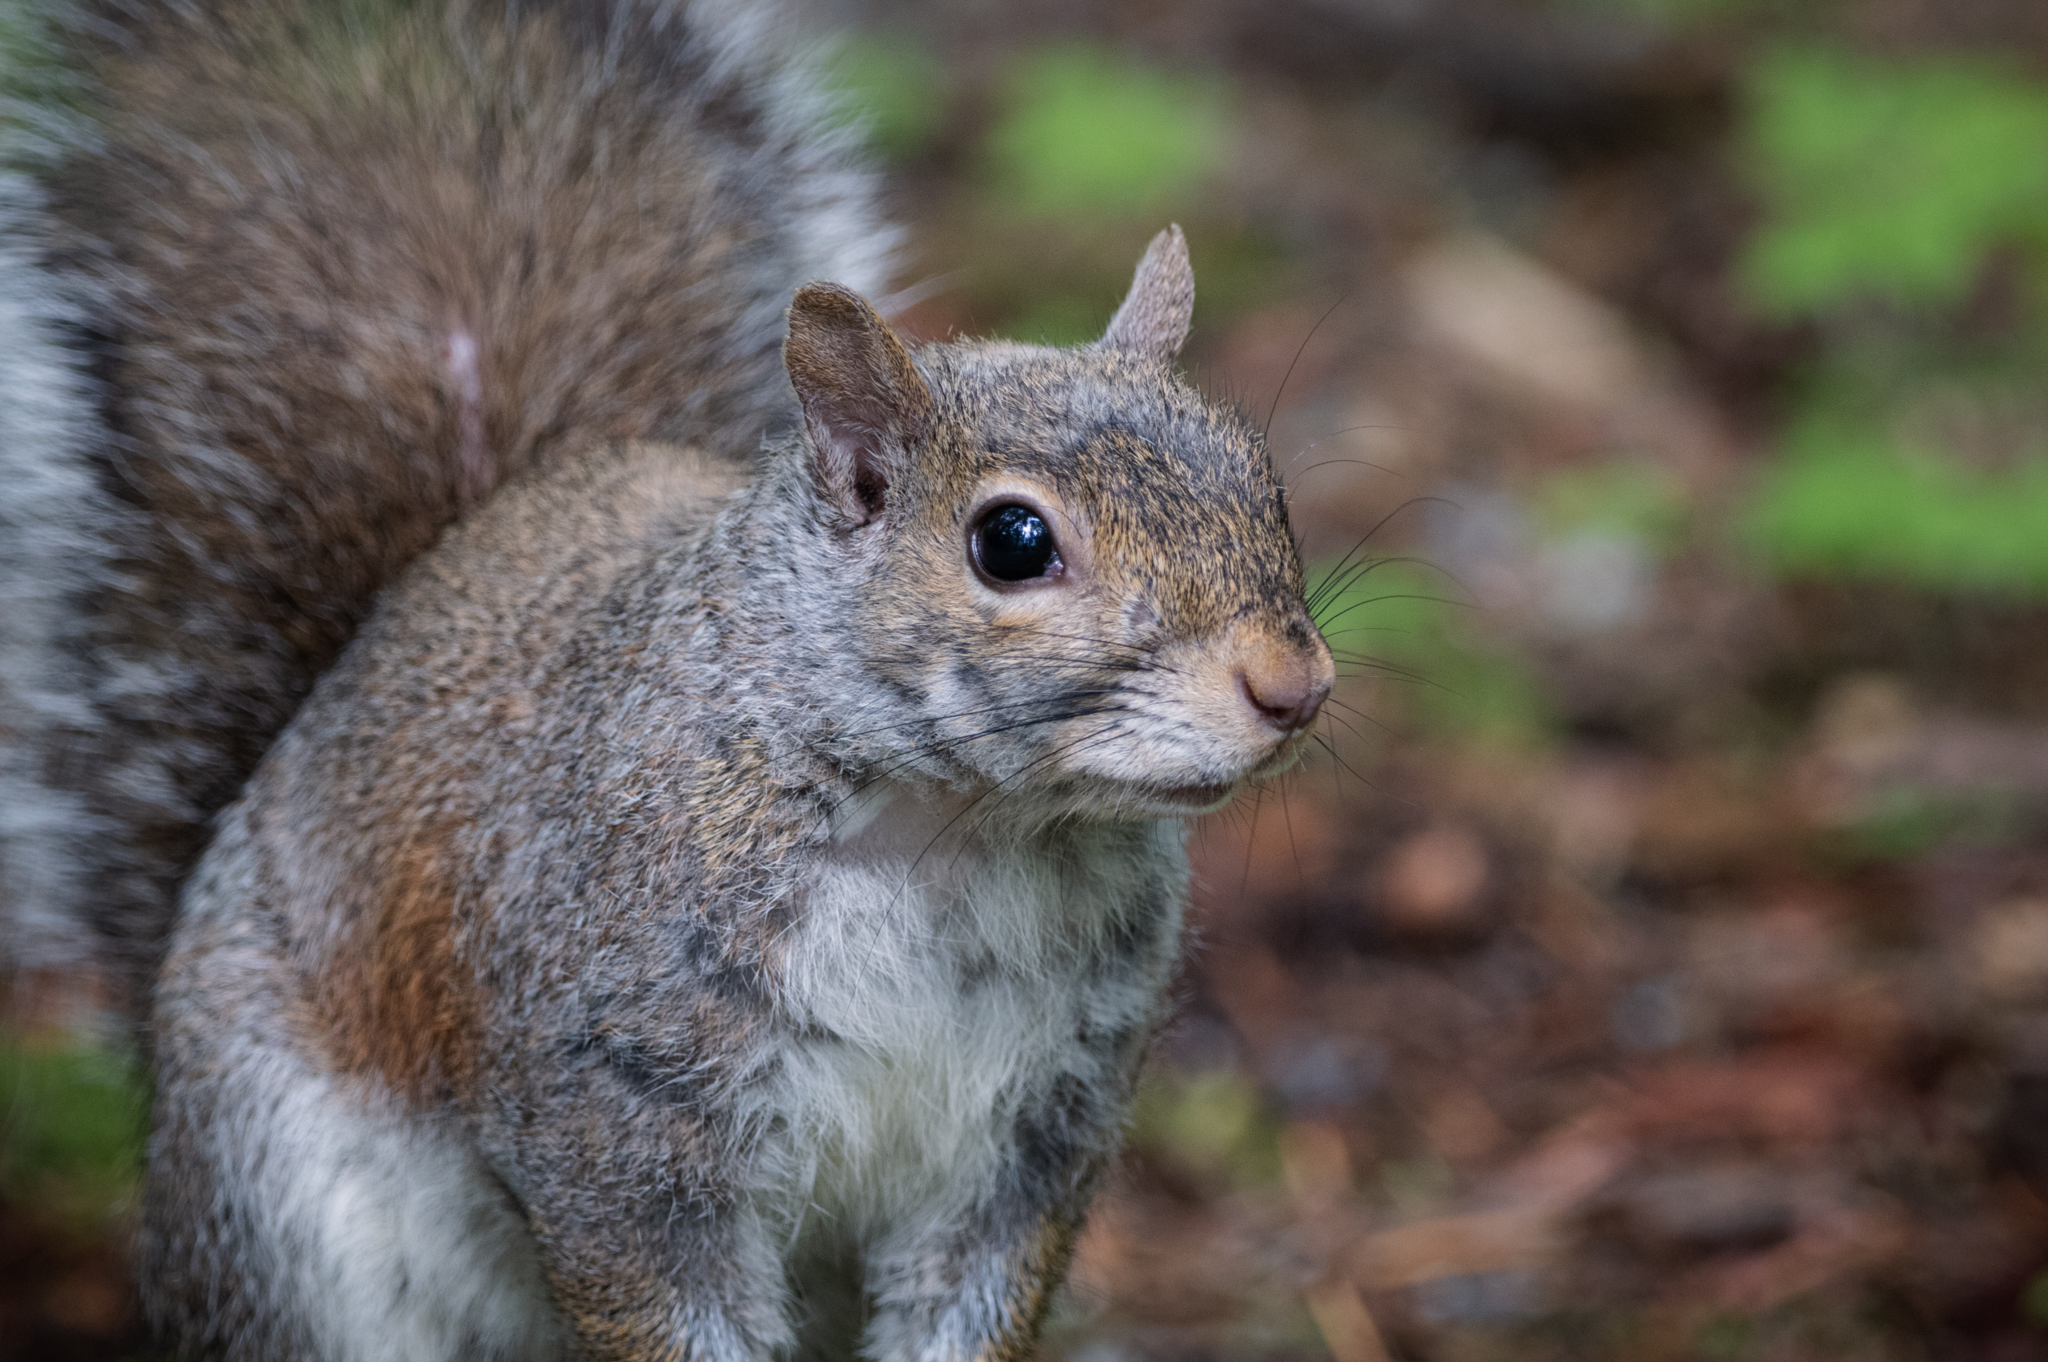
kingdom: Animalia
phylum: Chordata
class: Mammalia
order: Rodentia
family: Sciuridae
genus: Sciurus
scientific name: Sciurus carolinensis
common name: Eastern gray squirrel
